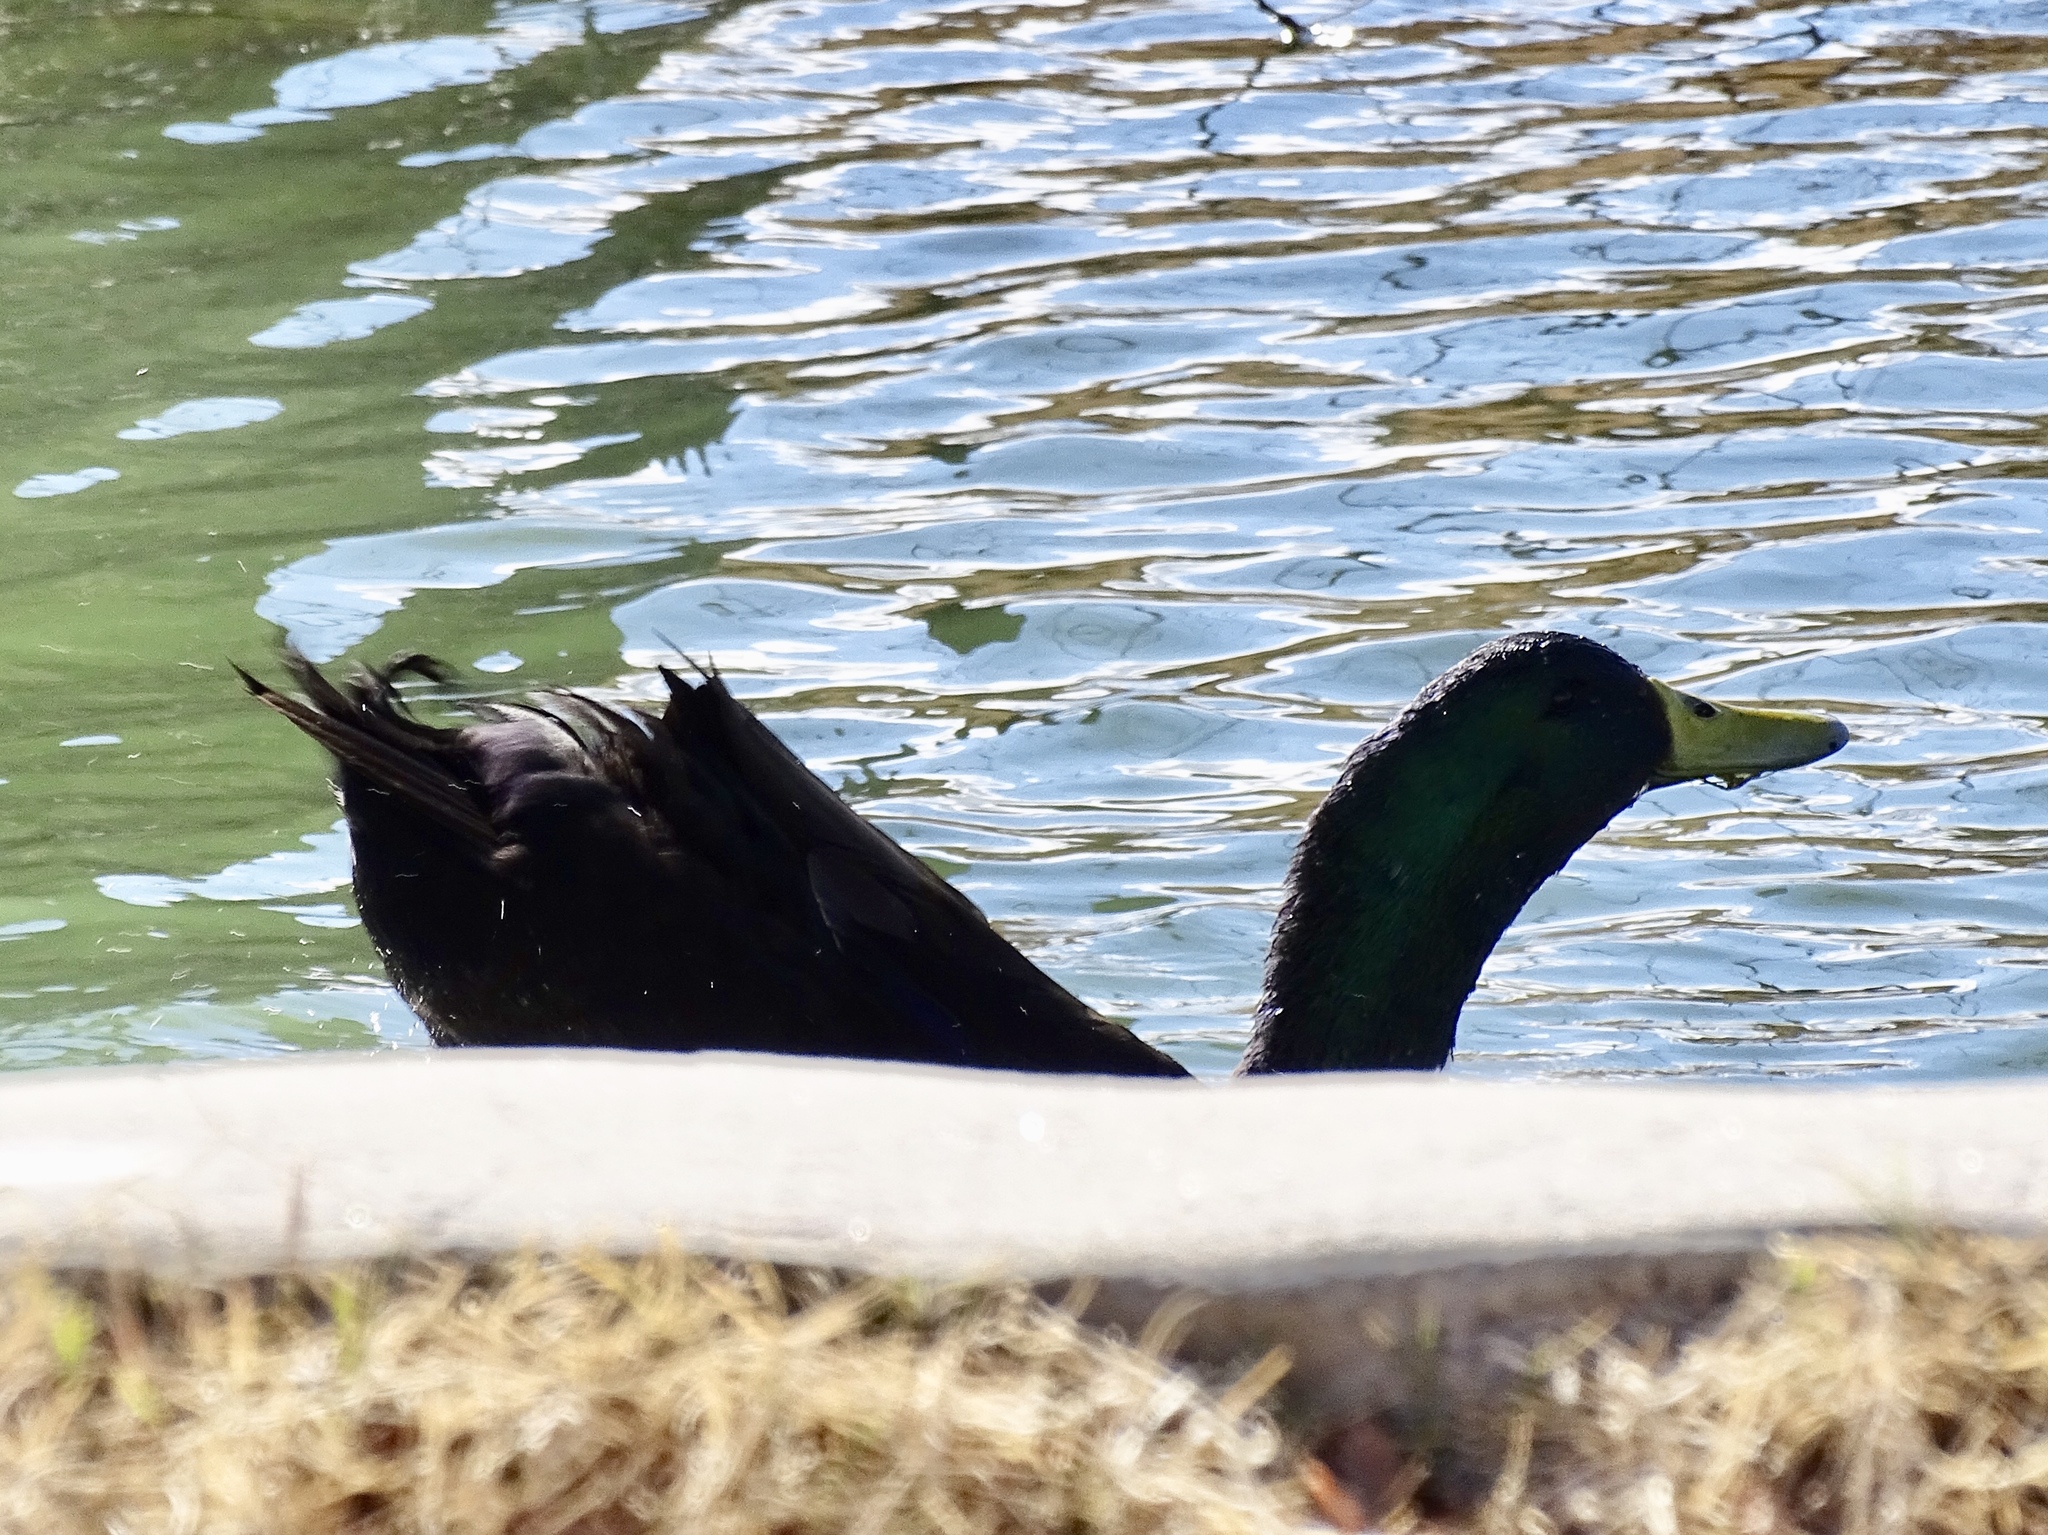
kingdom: Animalia
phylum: Chordata
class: Aves
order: Anseriformes
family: Anatidae
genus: Anas
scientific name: Anas platyrhynchos
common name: Mallard
